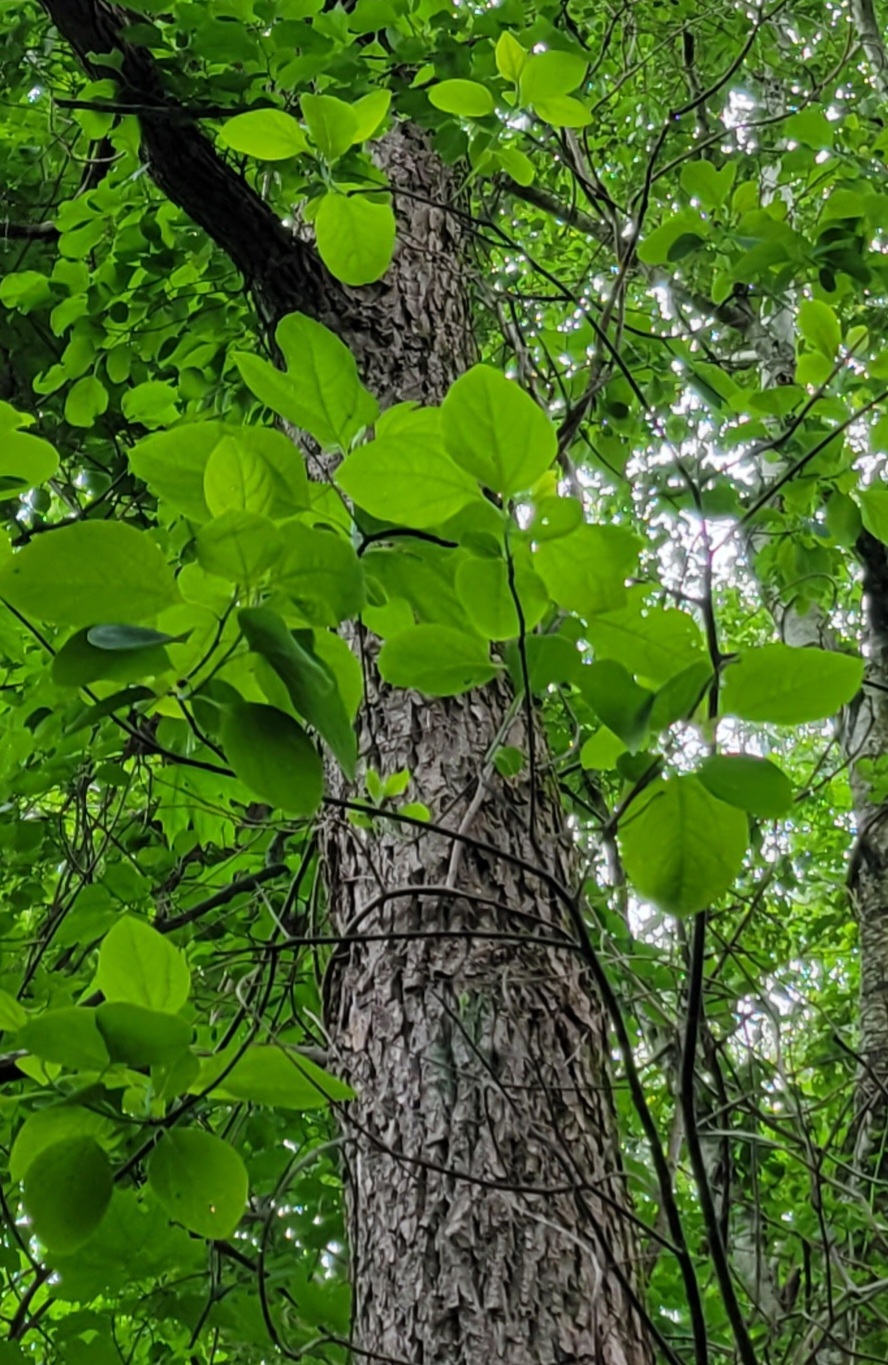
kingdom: Plantae
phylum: Tracheophyta
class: Magnoliopsida
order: Laurales
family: Lauraceae
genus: Sassafras
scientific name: Sassafras albidum
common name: Sassafras
